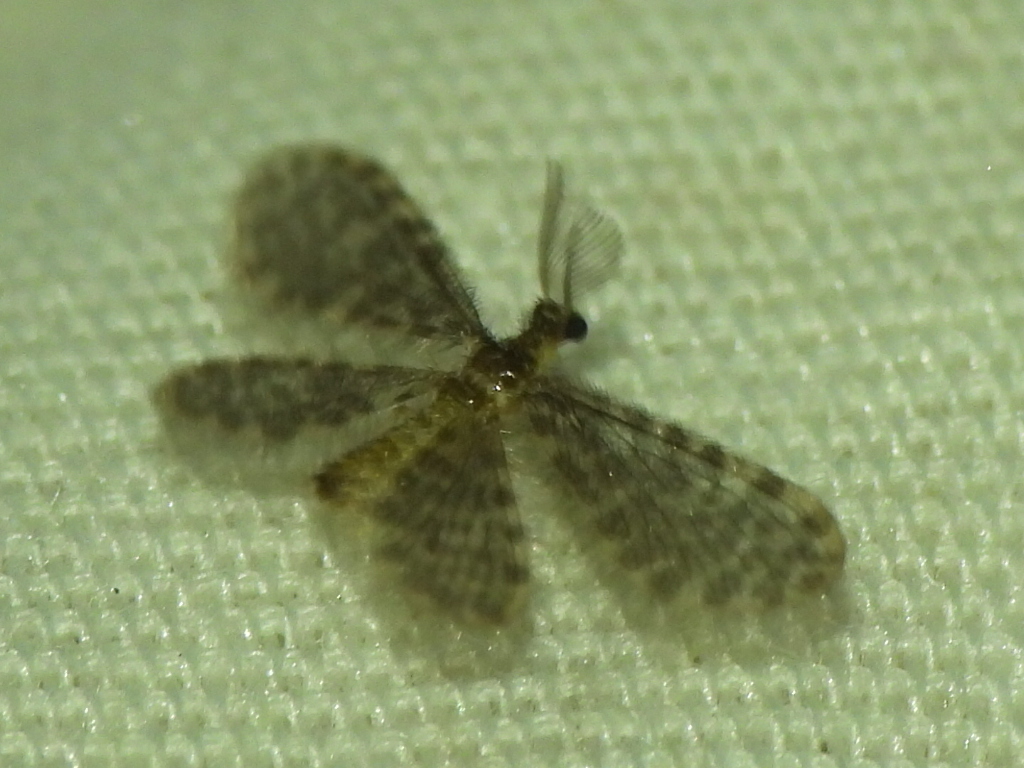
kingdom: Animalia
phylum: Arthropoda
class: Insecta
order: Neuroptera
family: Dilaridae
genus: Nallachius
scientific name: Nallachius americanus
